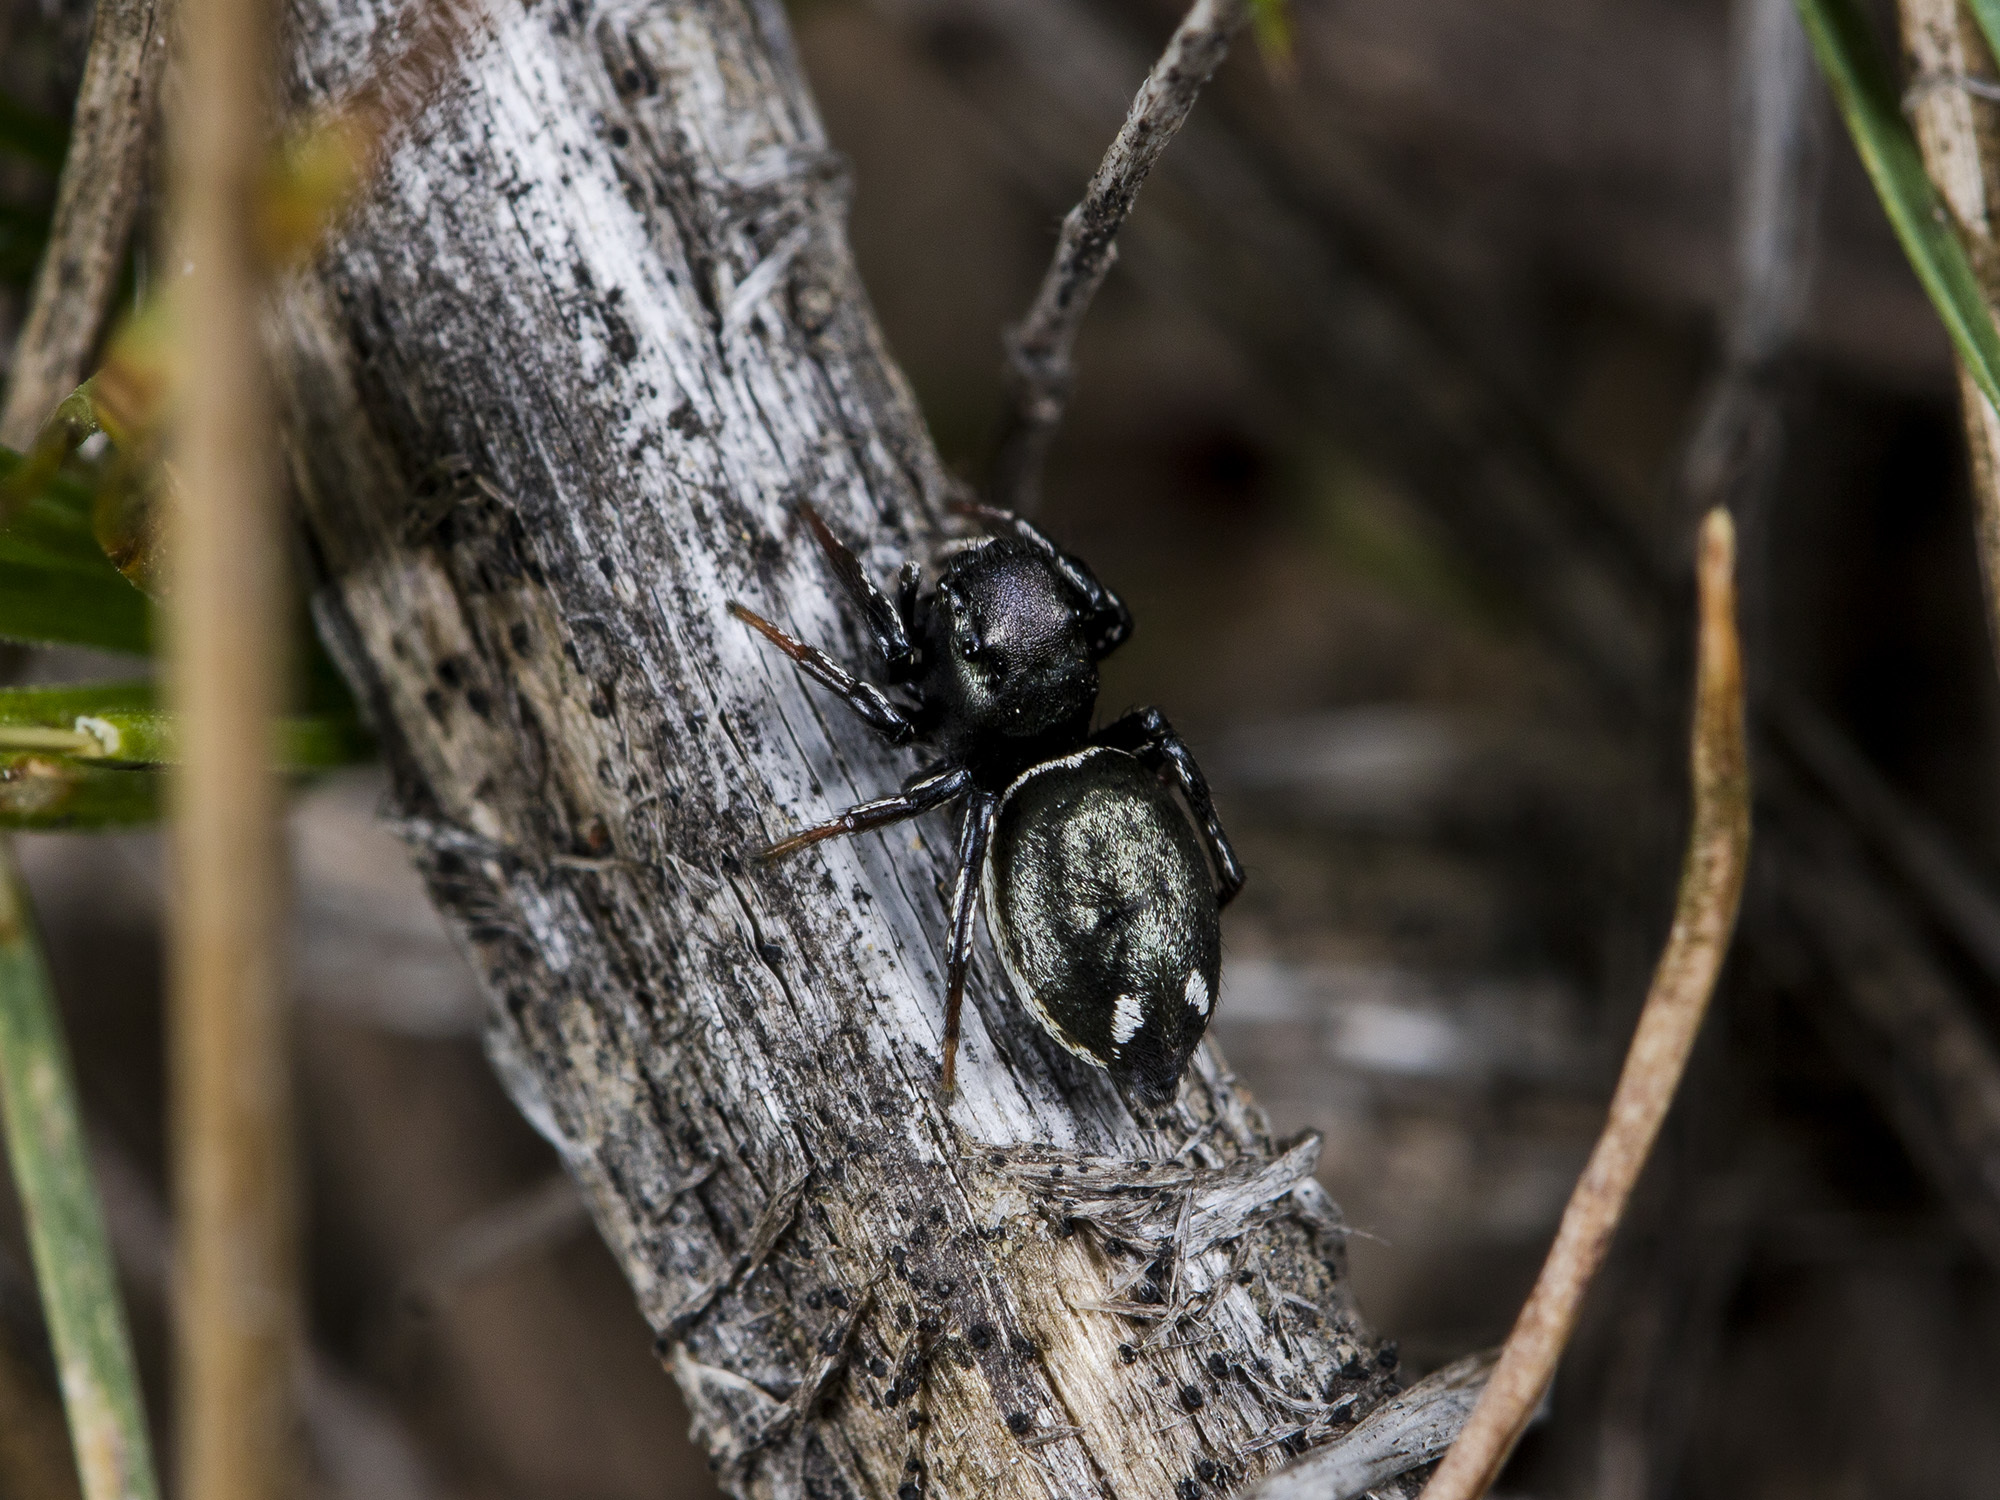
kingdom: Animalia
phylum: Arthropoda
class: Arachnida
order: Araneae
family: Salticidae
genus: Heliophanus
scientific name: Heliophanus chovdensis
